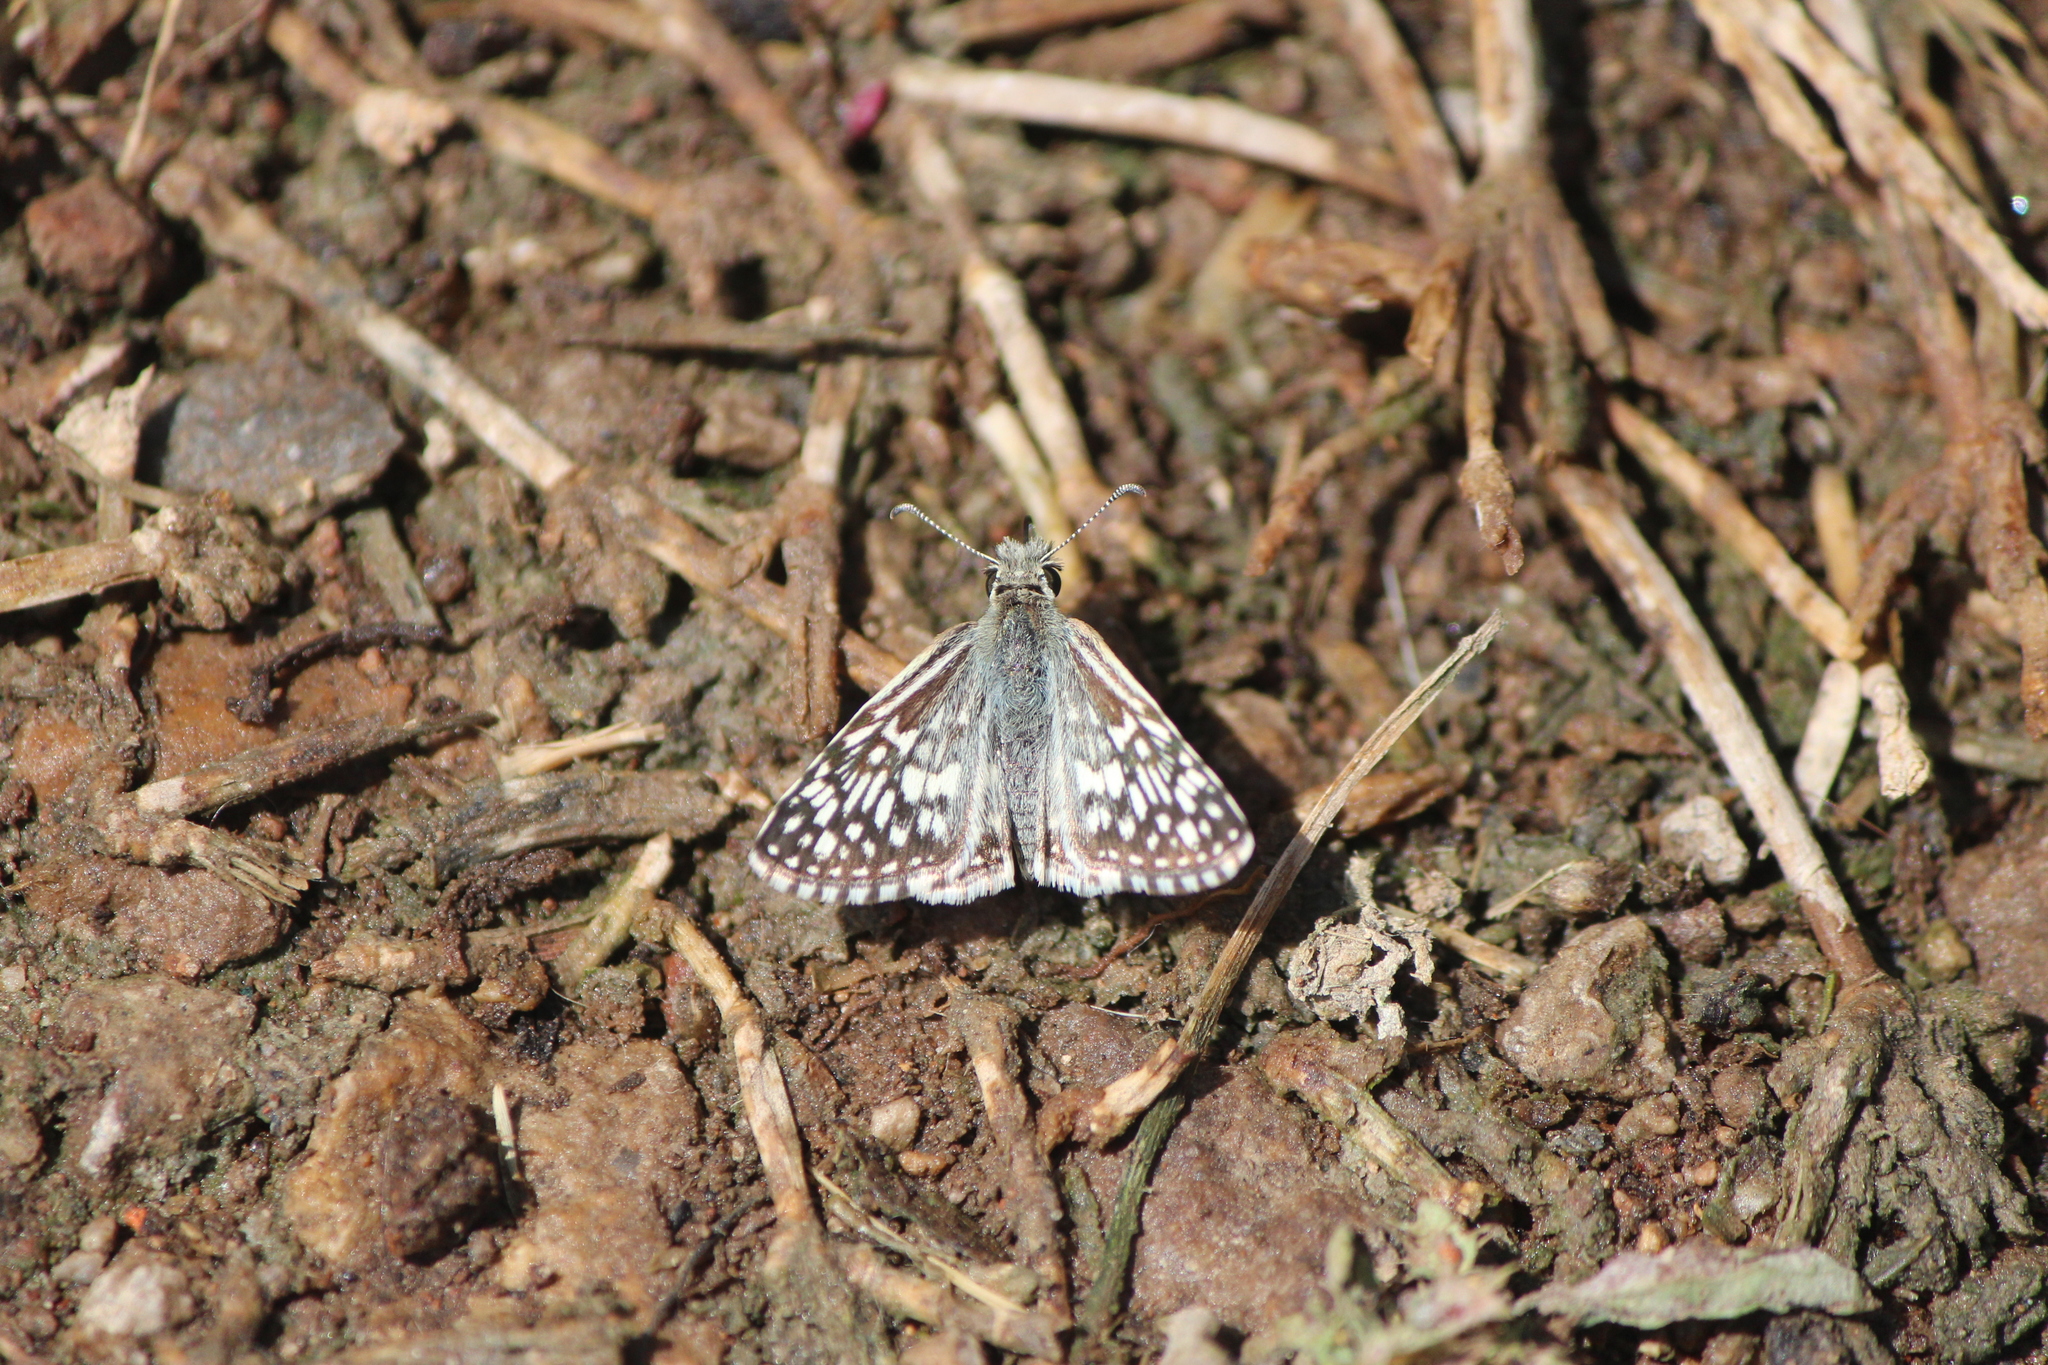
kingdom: Animalia
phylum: Arthropoda
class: Insecta
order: Lepidoptera
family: Hesperiidae
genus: Burnsius
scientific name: Burnsius communis
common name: Common checkered-skipper
